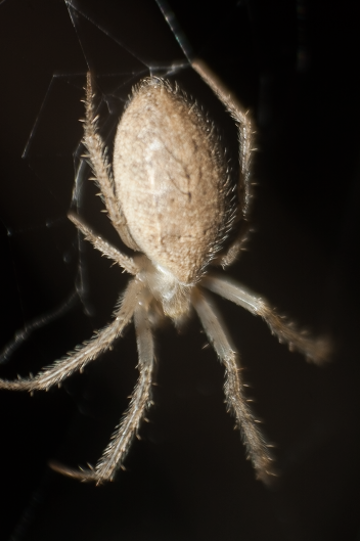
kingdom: Animalia
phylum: Arthropoda
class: Arachnida
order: Araneae
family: Araneidae
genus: Larinia
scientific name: Larinia lineata
